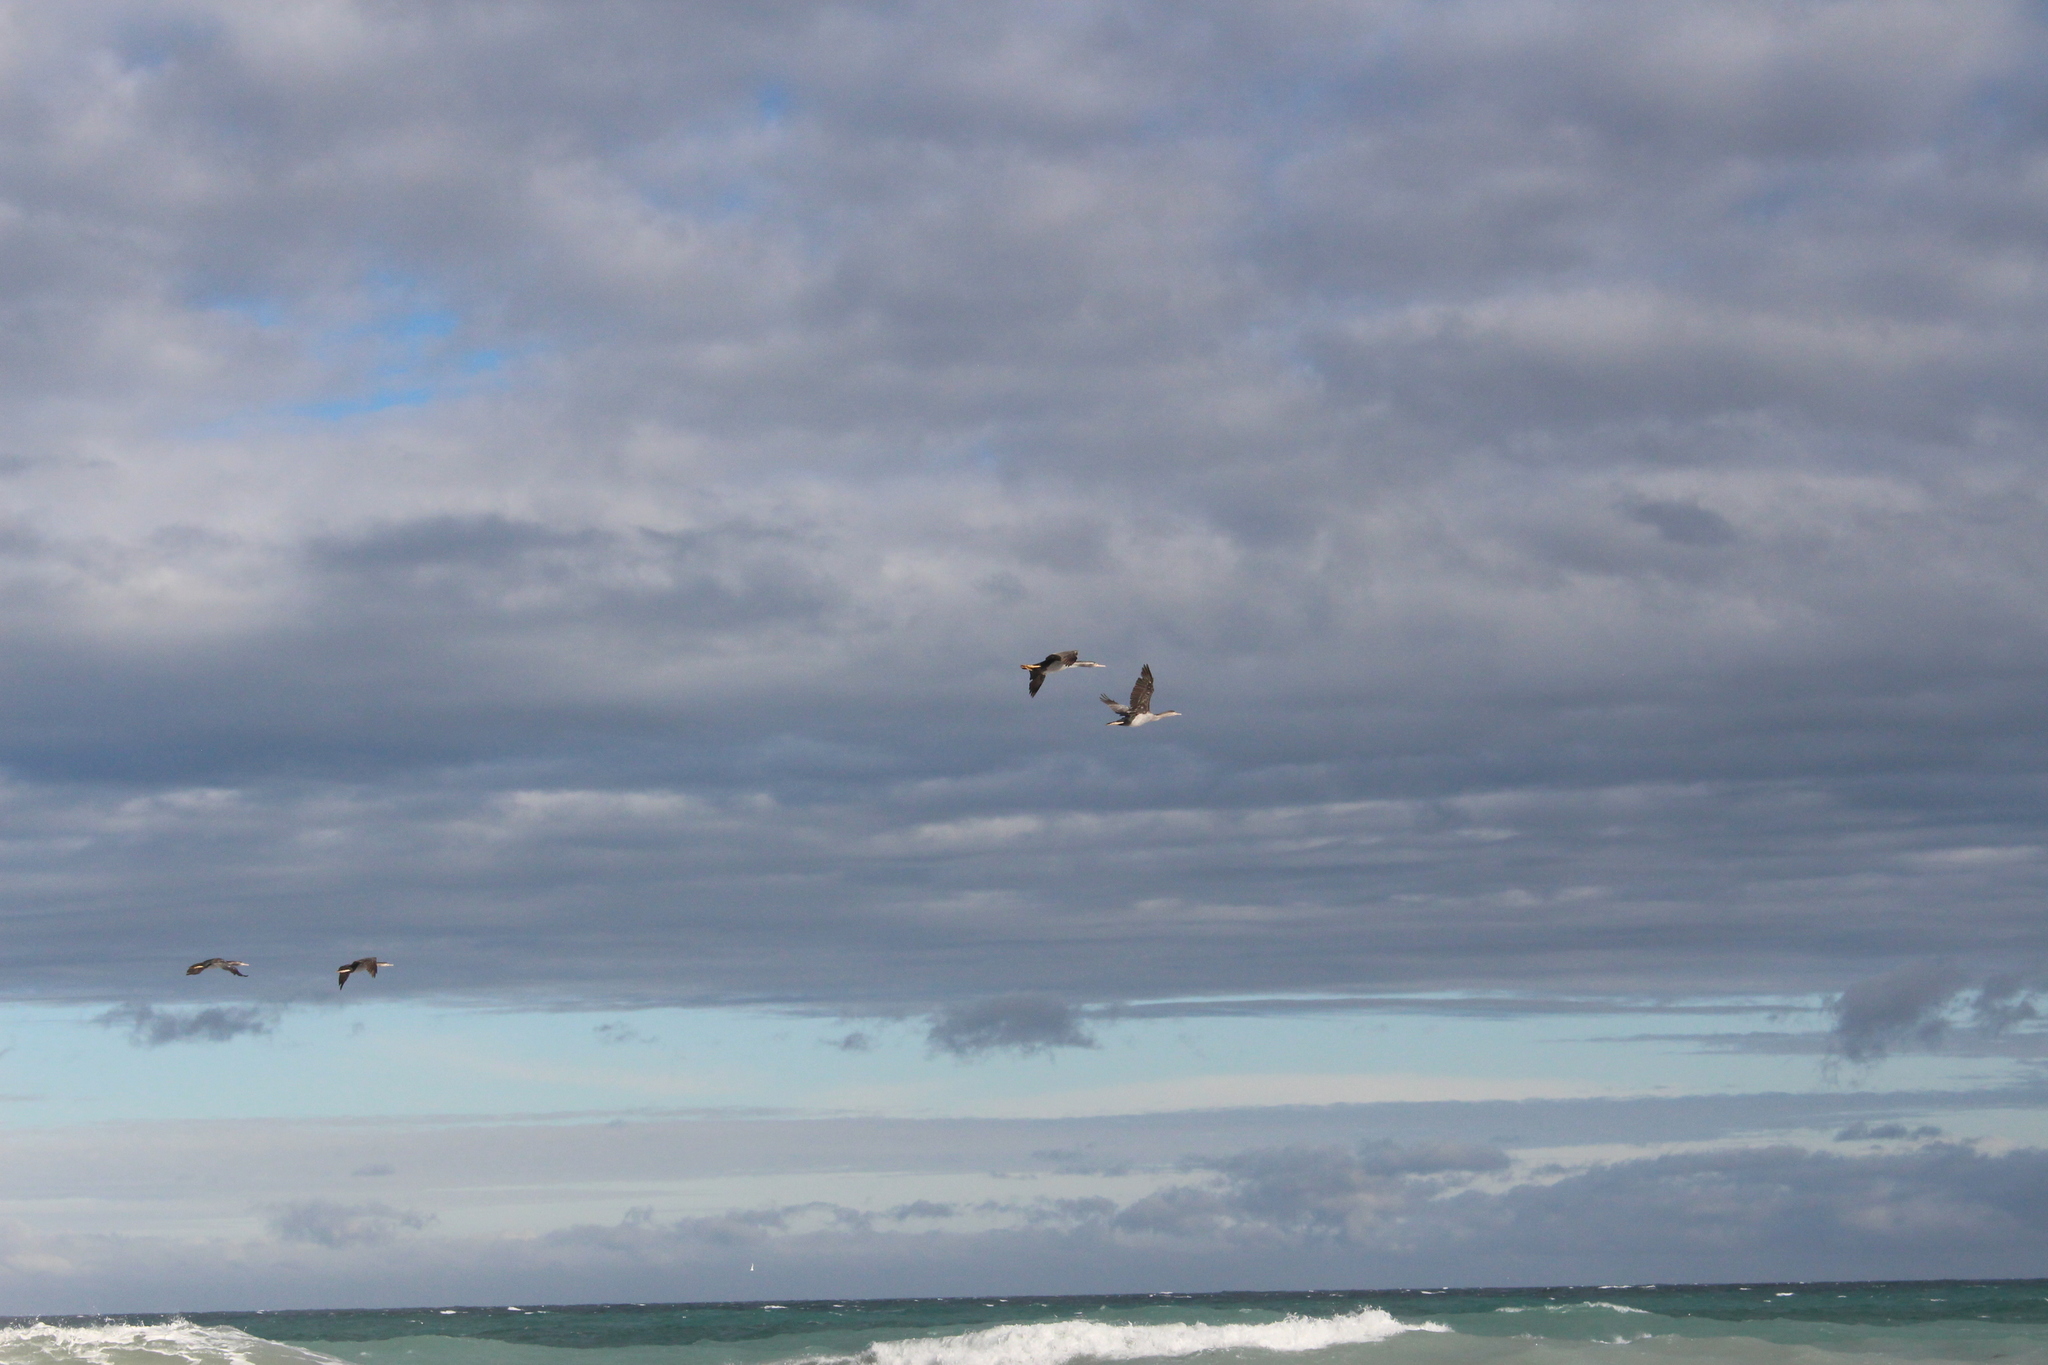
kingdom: Animalia
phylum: Chordata
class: Aves
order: Suliformes
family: Phalacrocoracidae
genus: Phalacrocorax
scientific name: Phalacrocorax punctatus
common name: Spotted shag
